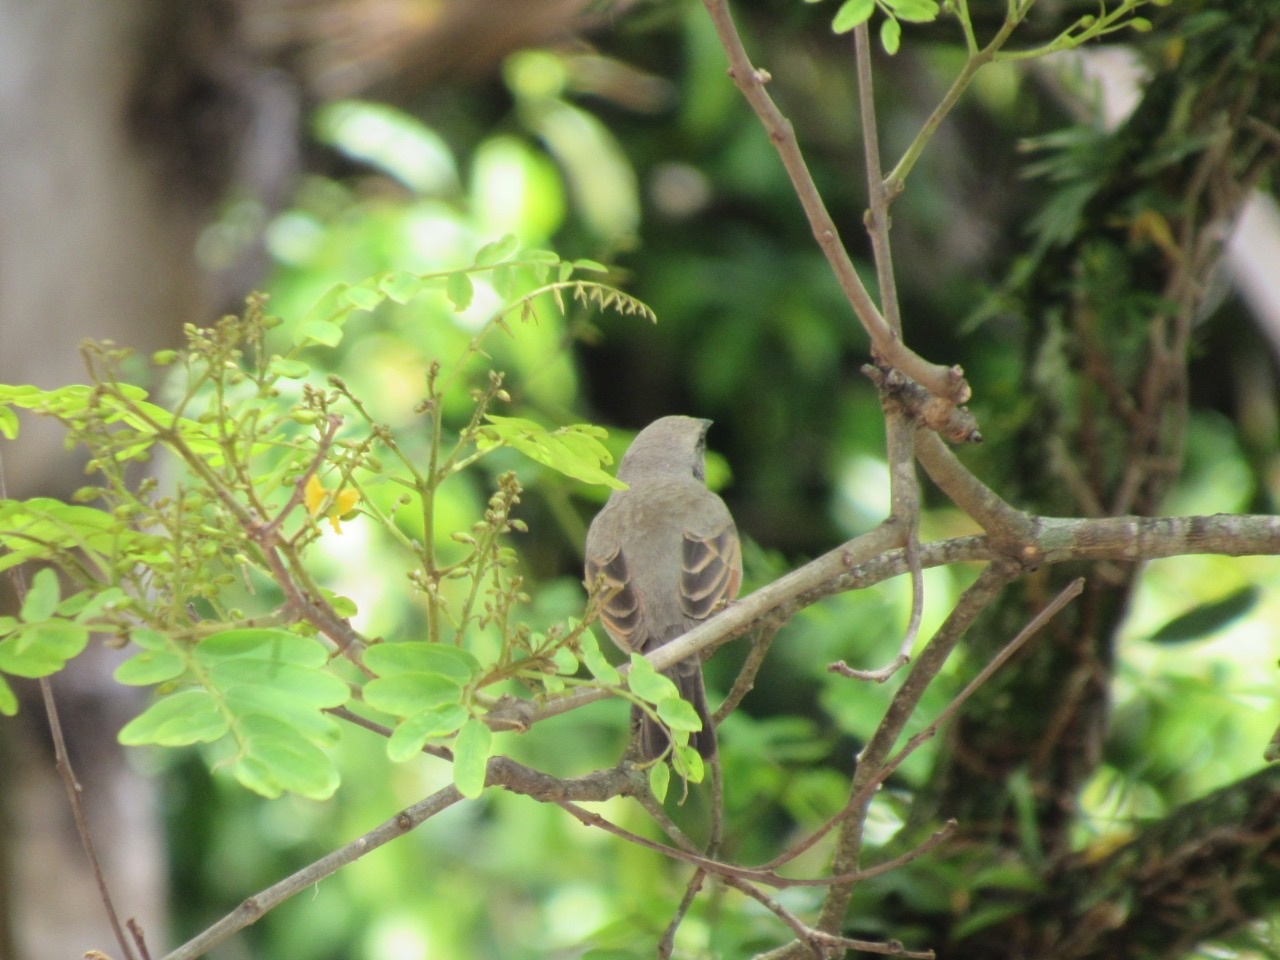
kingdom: Animalia
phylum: Chordata
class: Aves
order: Passeriformes
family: Icteridae
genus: Agelaioides
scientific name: Agelaioides badius
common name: Baywing
